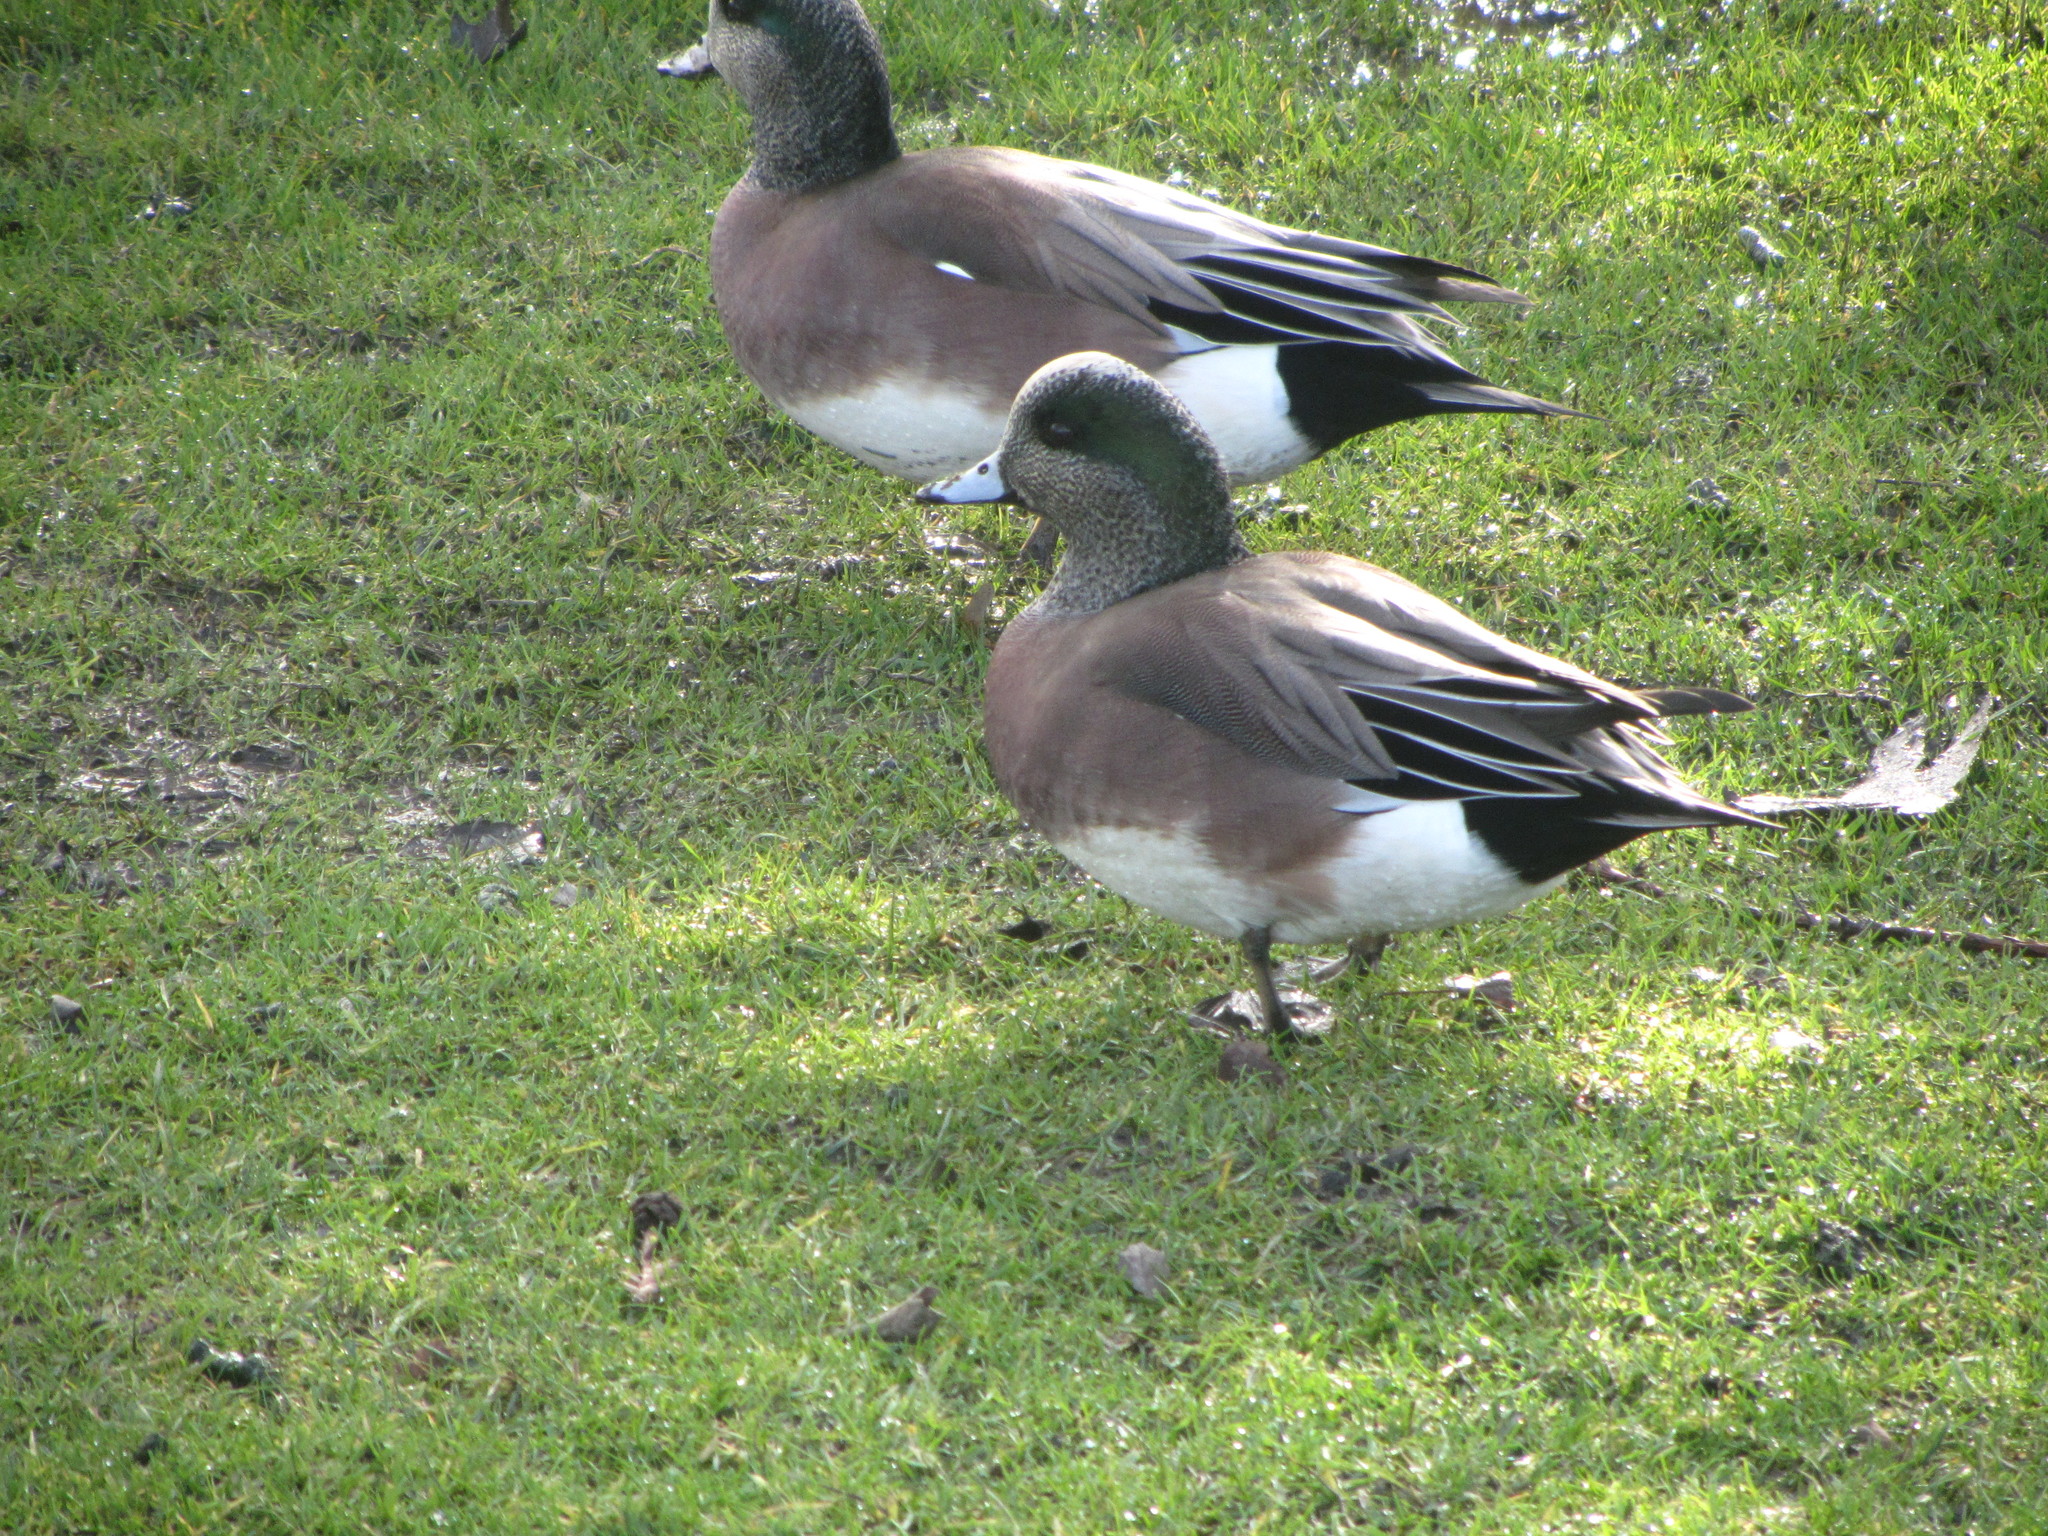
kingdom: Animalia
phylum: Chordata
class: Aves
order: Anseriformes
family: Anatidae
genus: Mareca
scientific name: Mareca americana
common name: American wigeon
